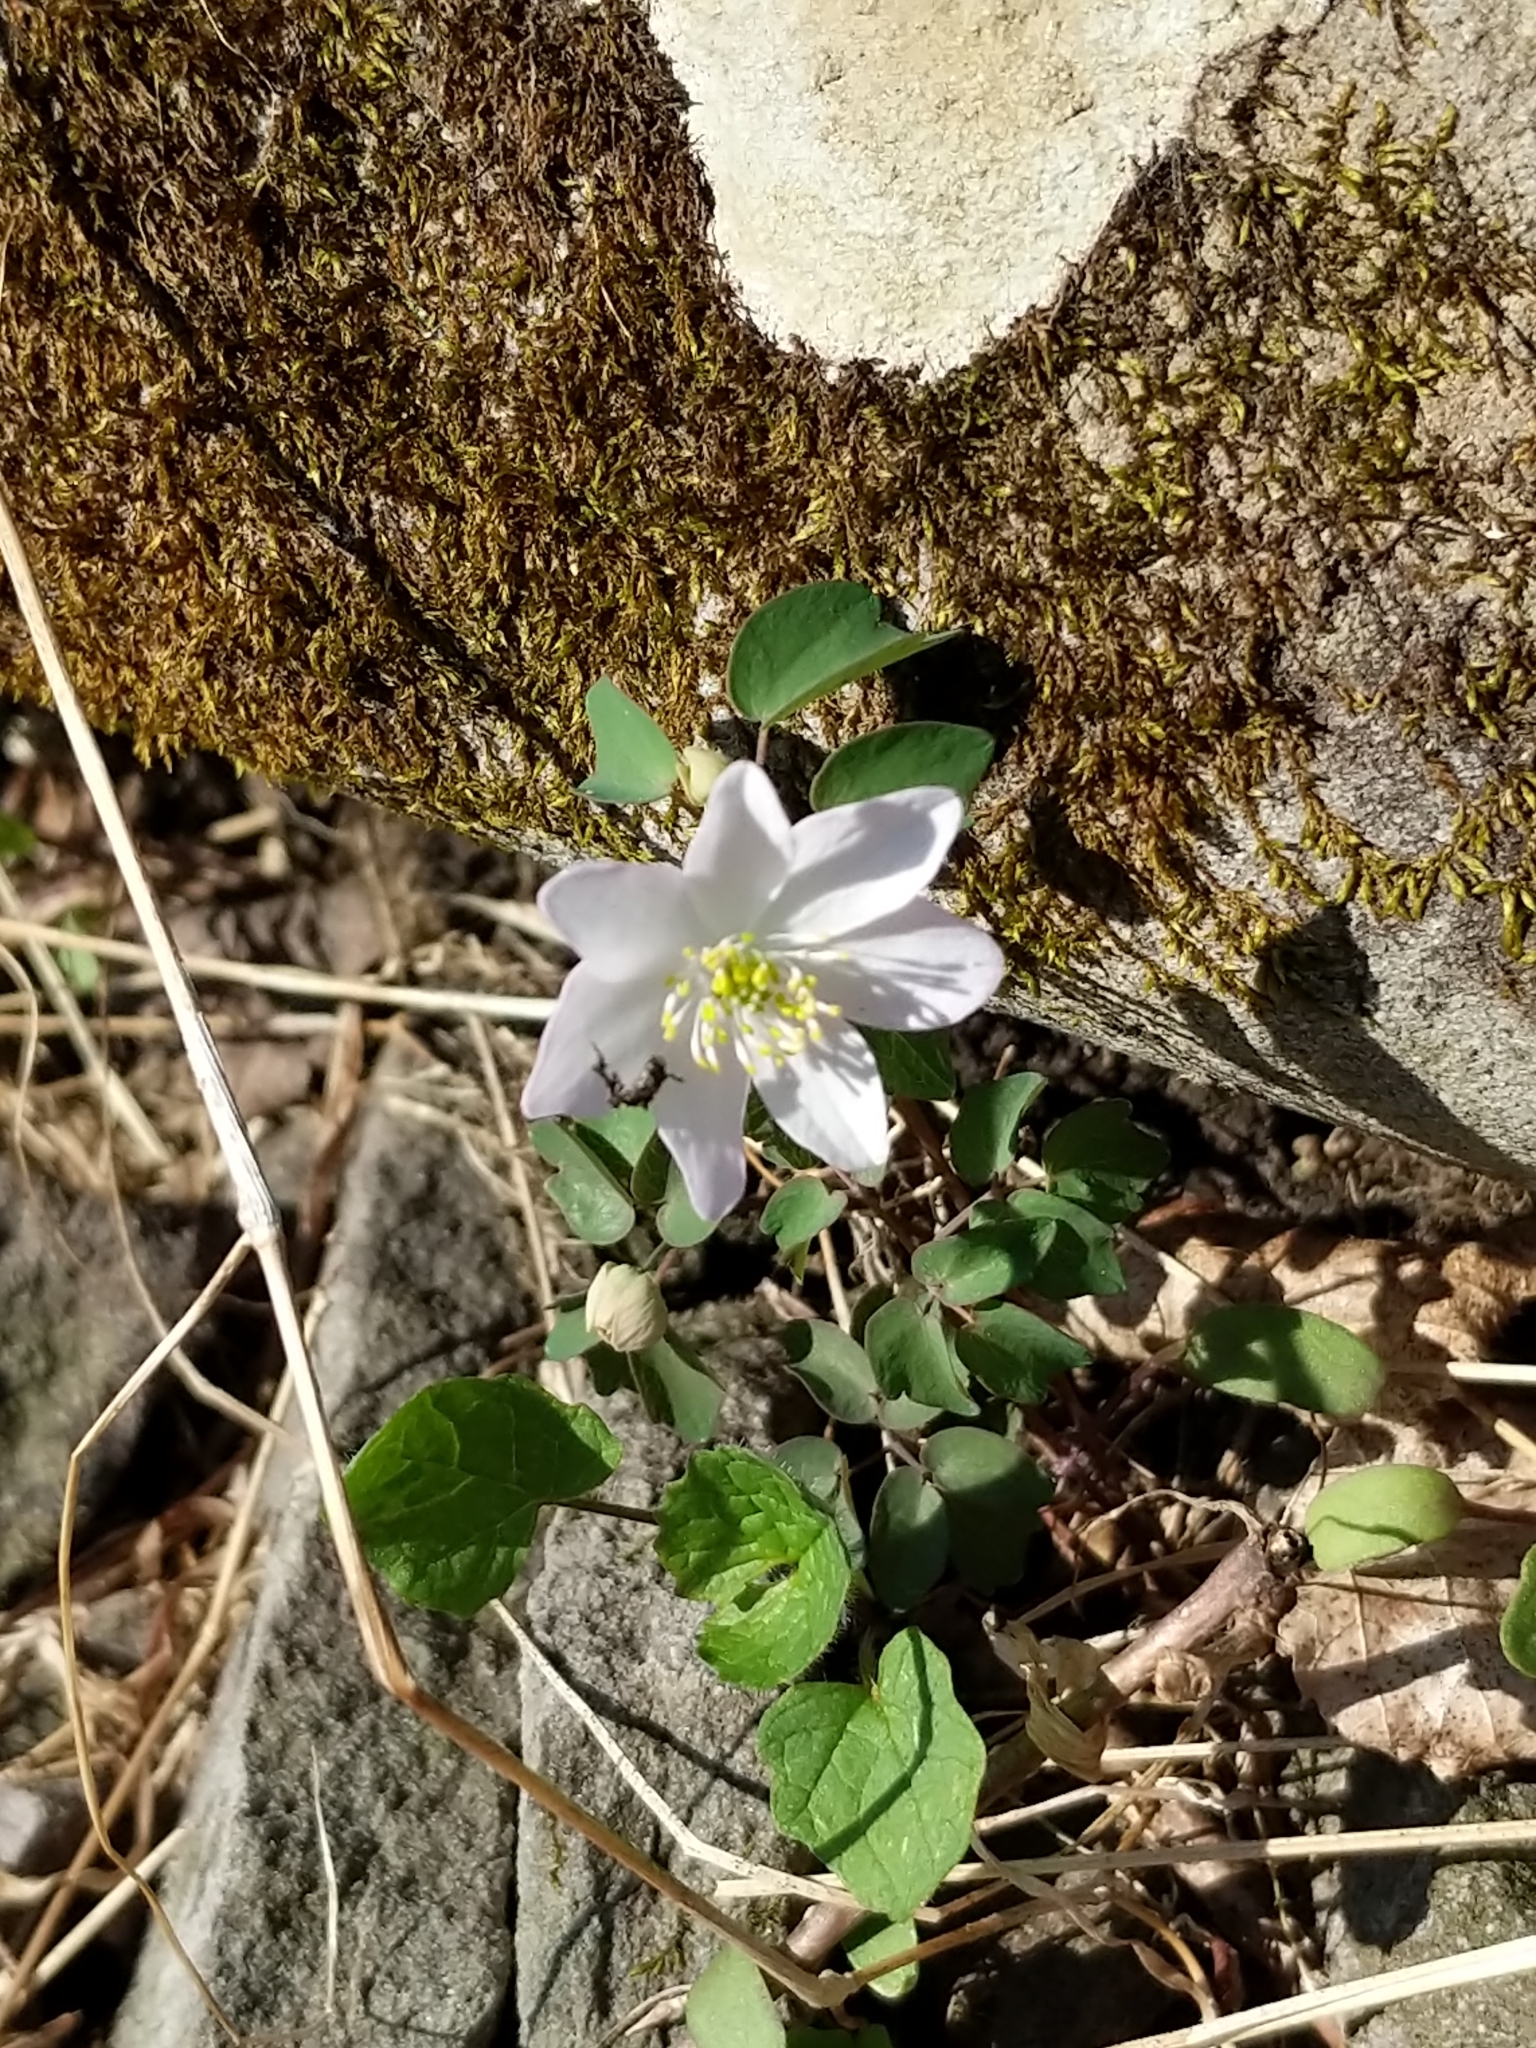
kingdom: Plantae
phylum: Tracheophyta
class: Magnoliopsida
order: Ranunculales
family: Ranunculaceae
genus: Thalictrum
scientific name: Thalictrum thalictroides
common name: Rue-anemone
